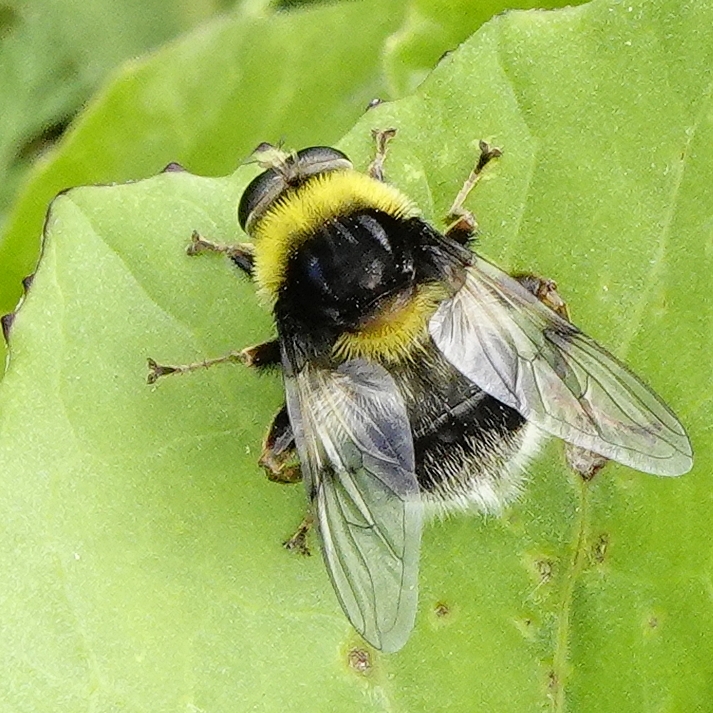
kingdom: Animalia
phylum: Arthropoda
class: Insecta
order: Diptera
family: Syrphidae
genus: Sericomyia
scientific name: Sericomyia bombiformis
